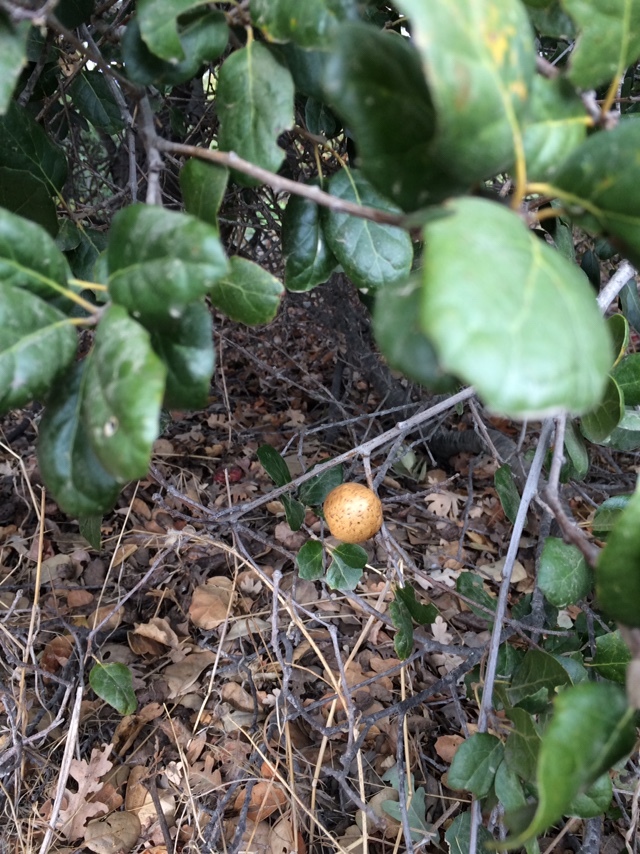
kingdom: Animalia
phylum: Arthropoda
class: Insecta
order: Hymenoptera
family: Cynipidae
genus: Amphibolips
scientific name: Amphibolips quercuspomiformis
